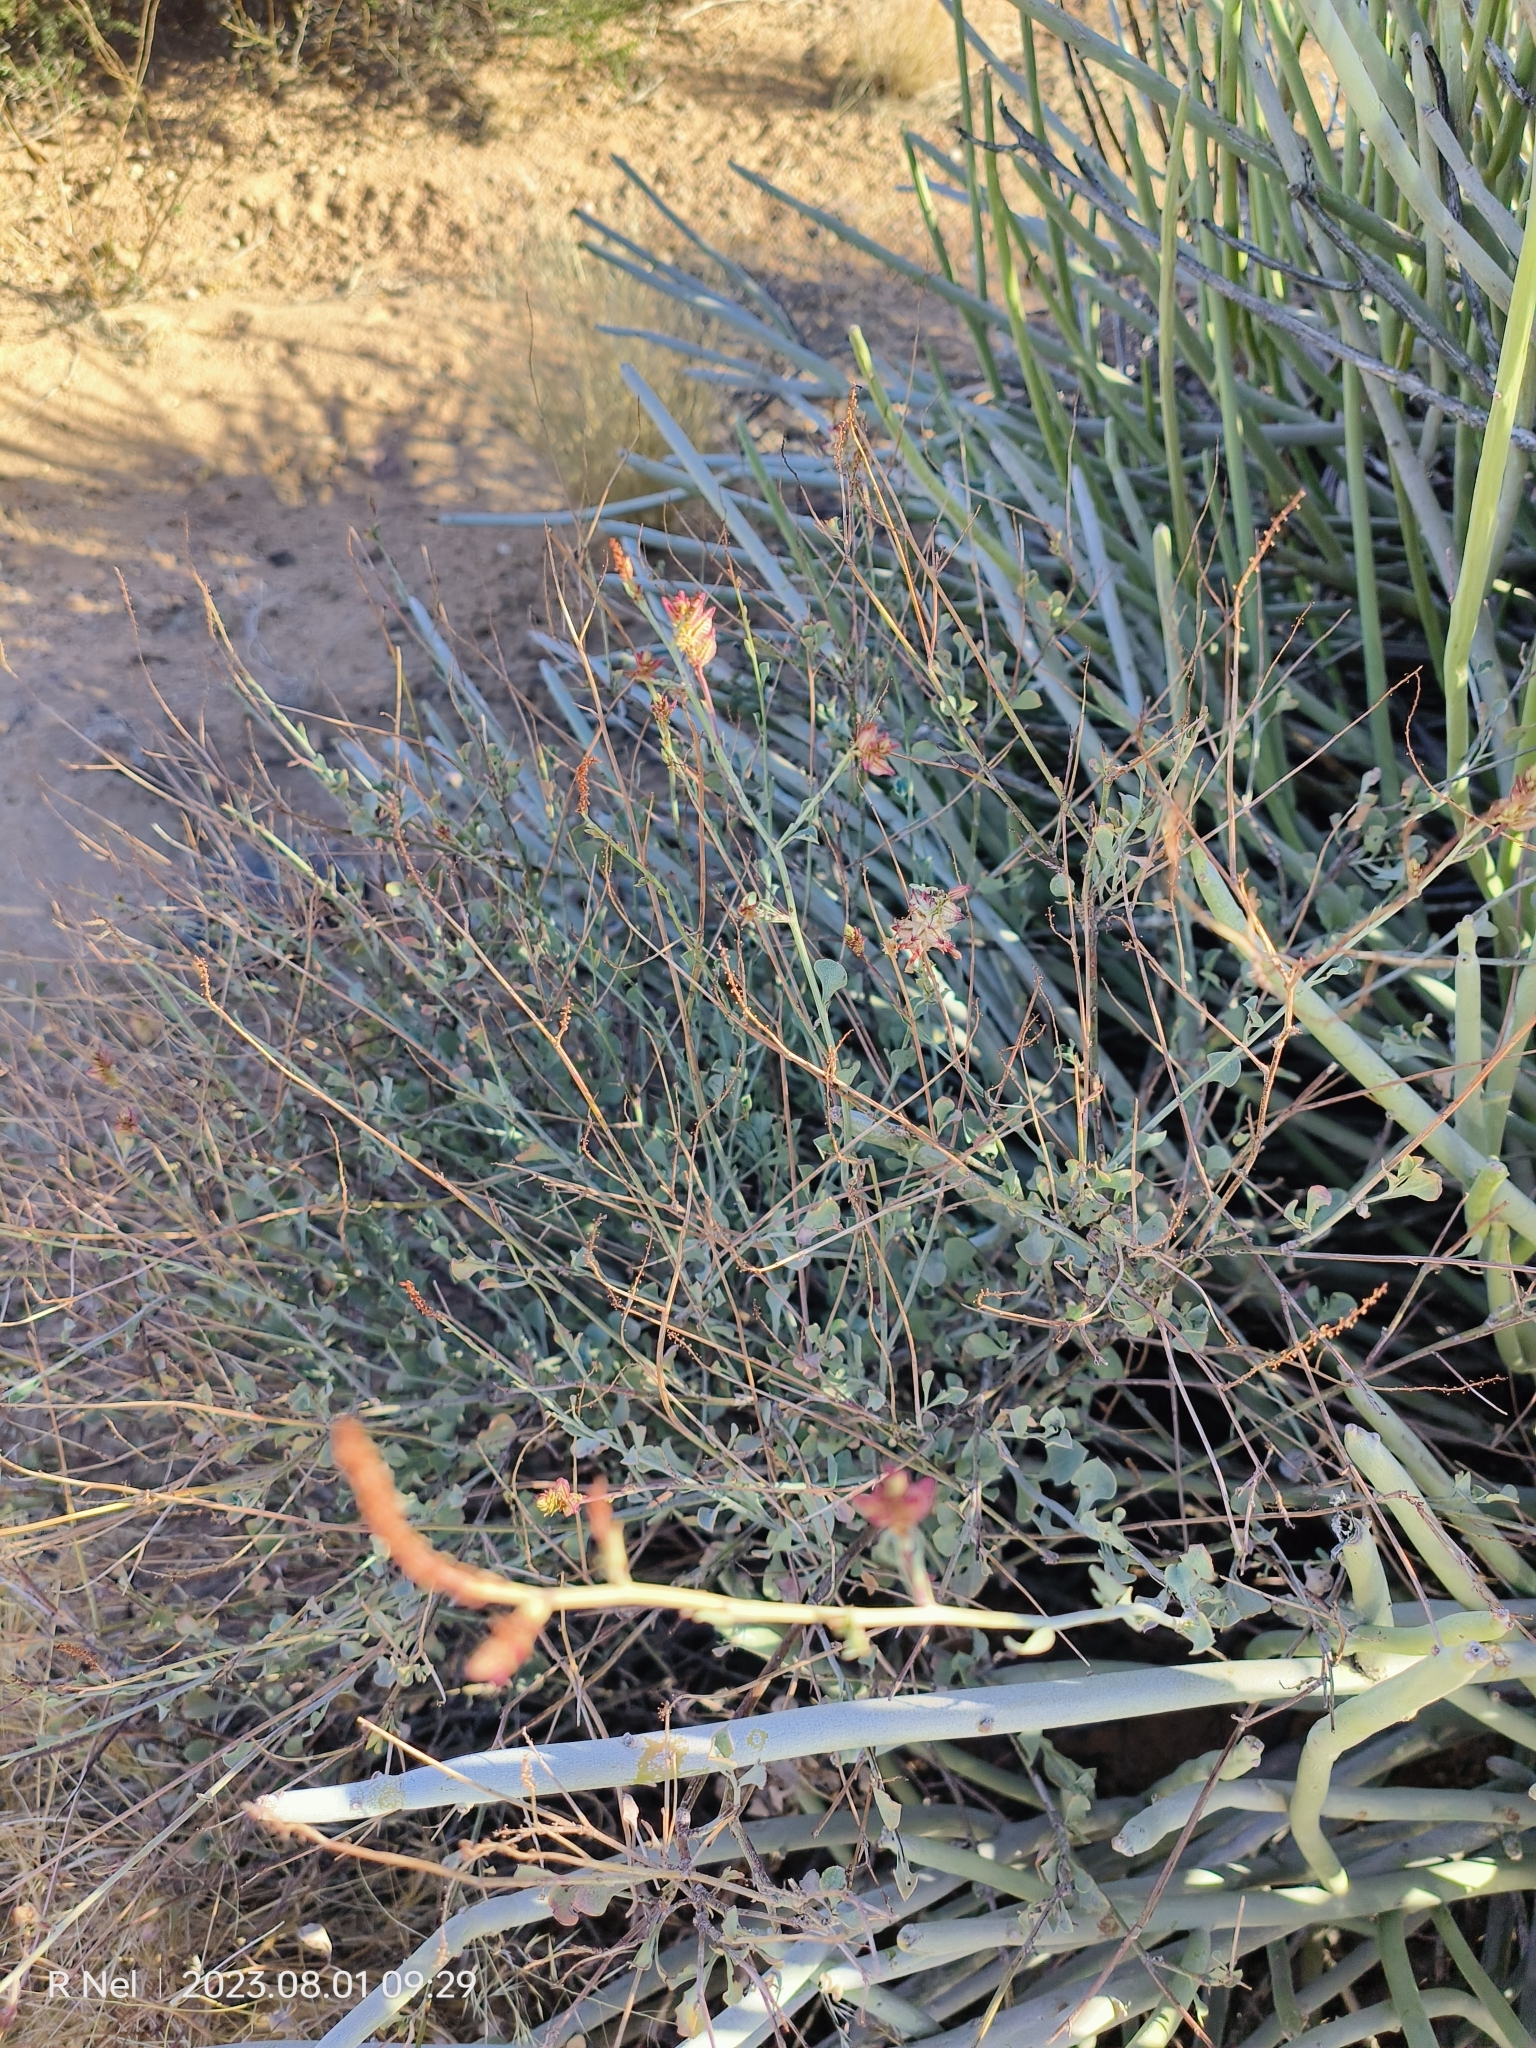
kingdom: Plantae
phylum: Tracheophyta
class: Magnoliopsida
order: Caryophyllales
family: Plumbaginaceae
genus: Dyerophytum
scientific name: Dyerophytum africanum
